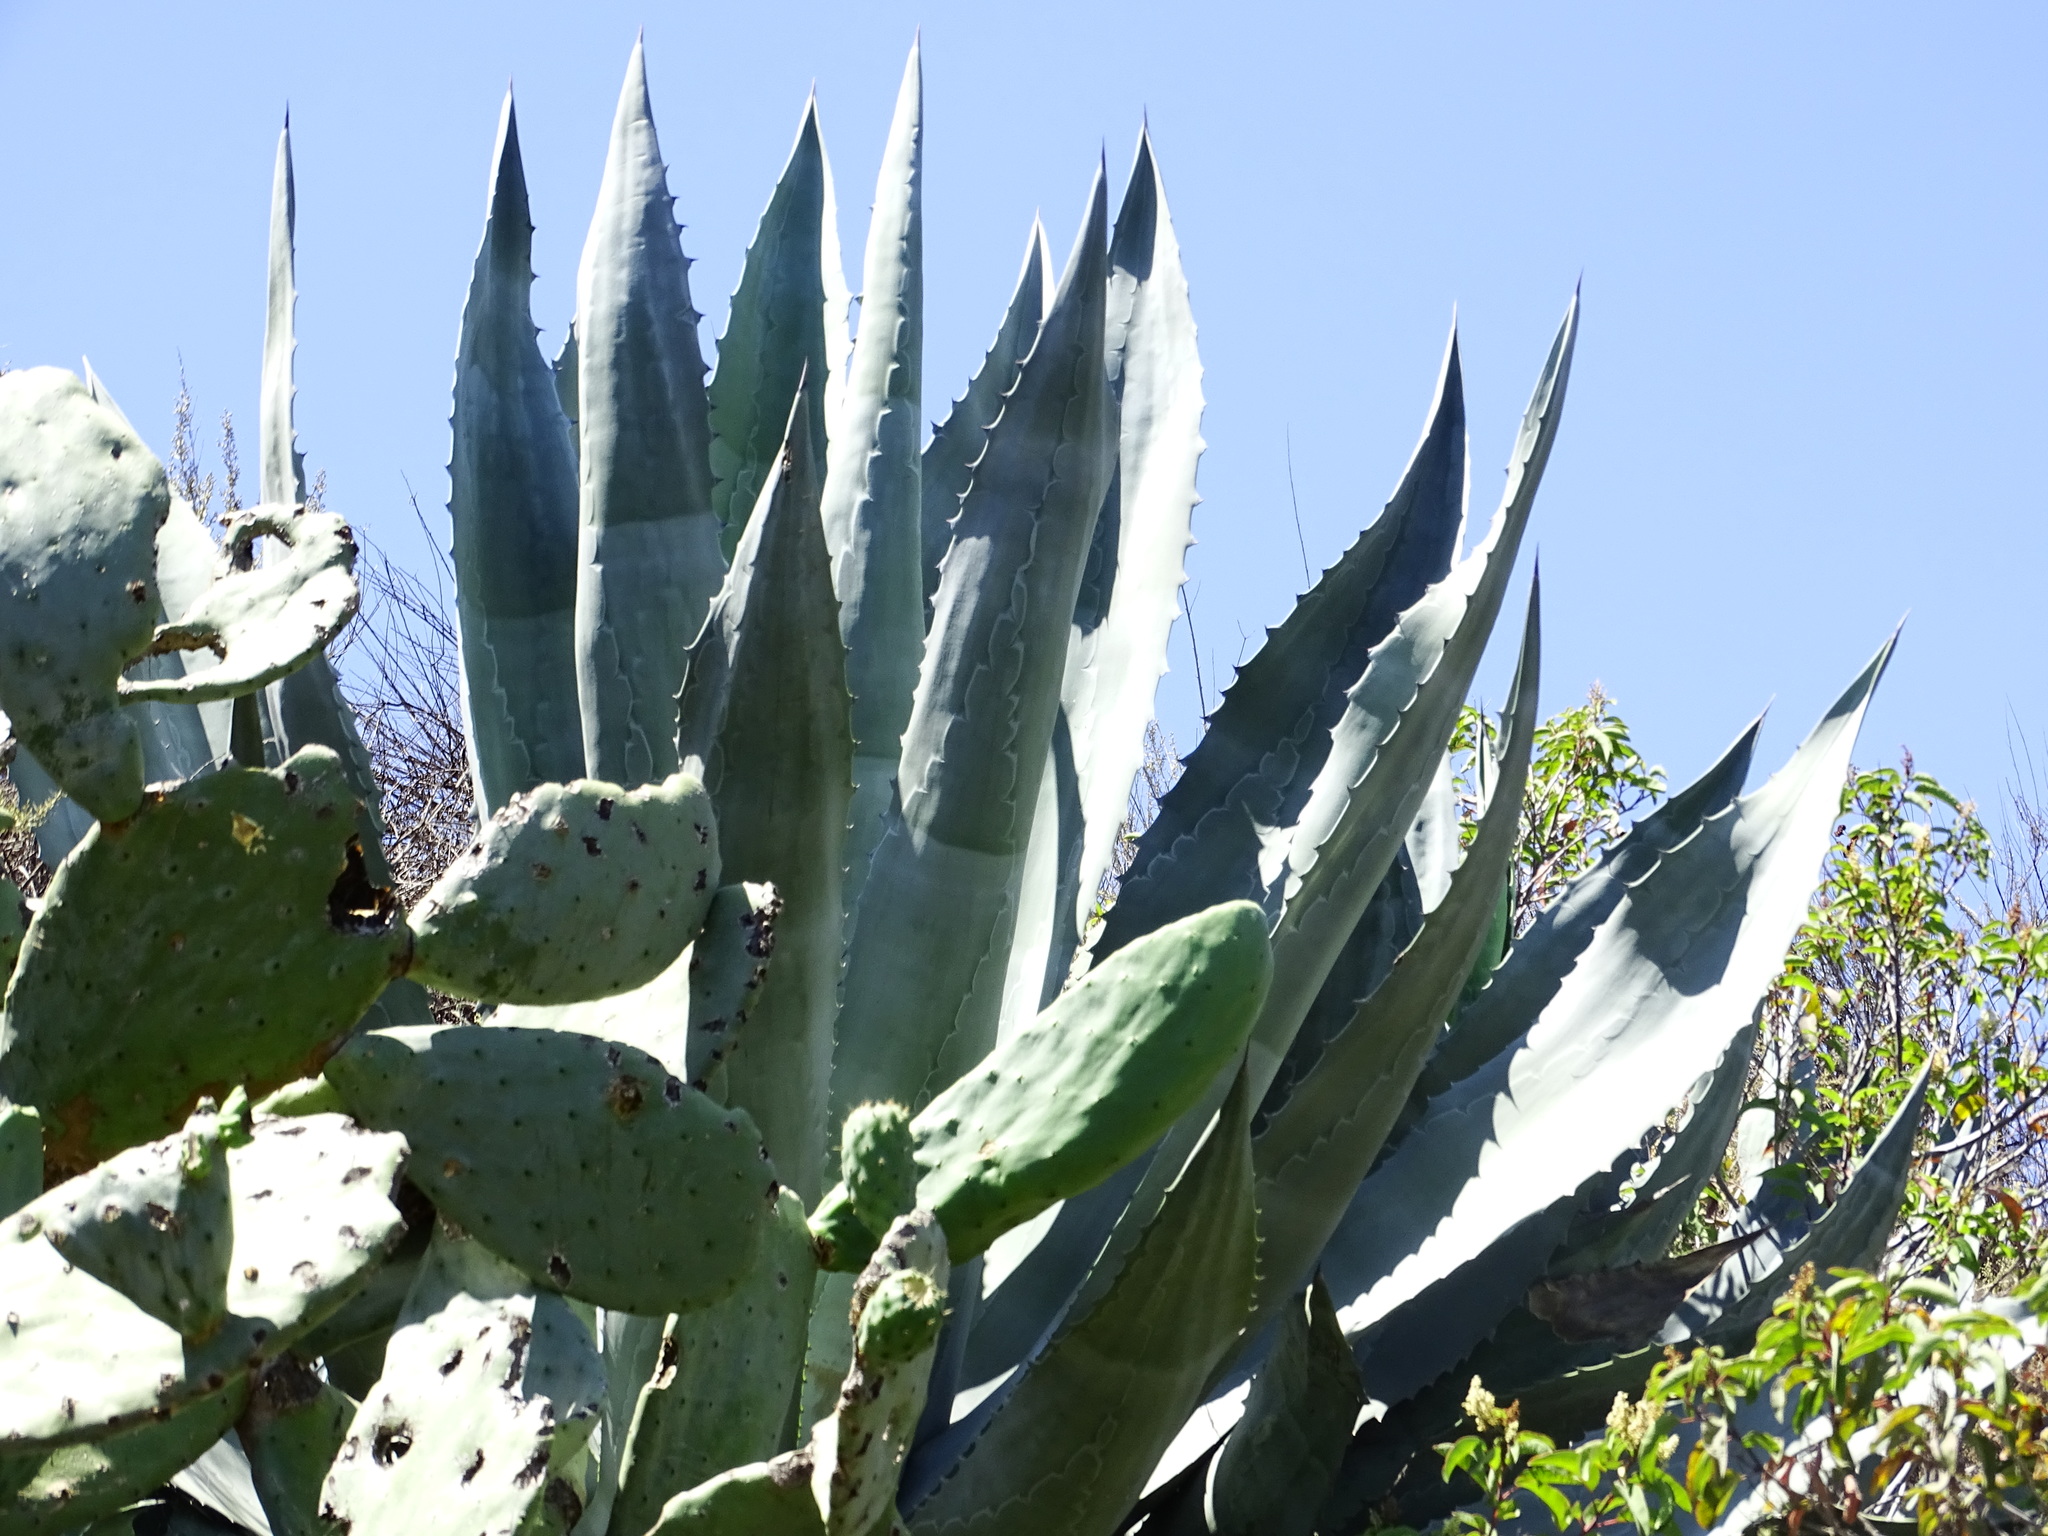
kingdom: Plantae
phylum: Tracheophyta
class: Liliopsida
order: Asparagales
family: Asparagaceae
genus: Agave
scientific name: Agave americana
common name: Centuryplant
